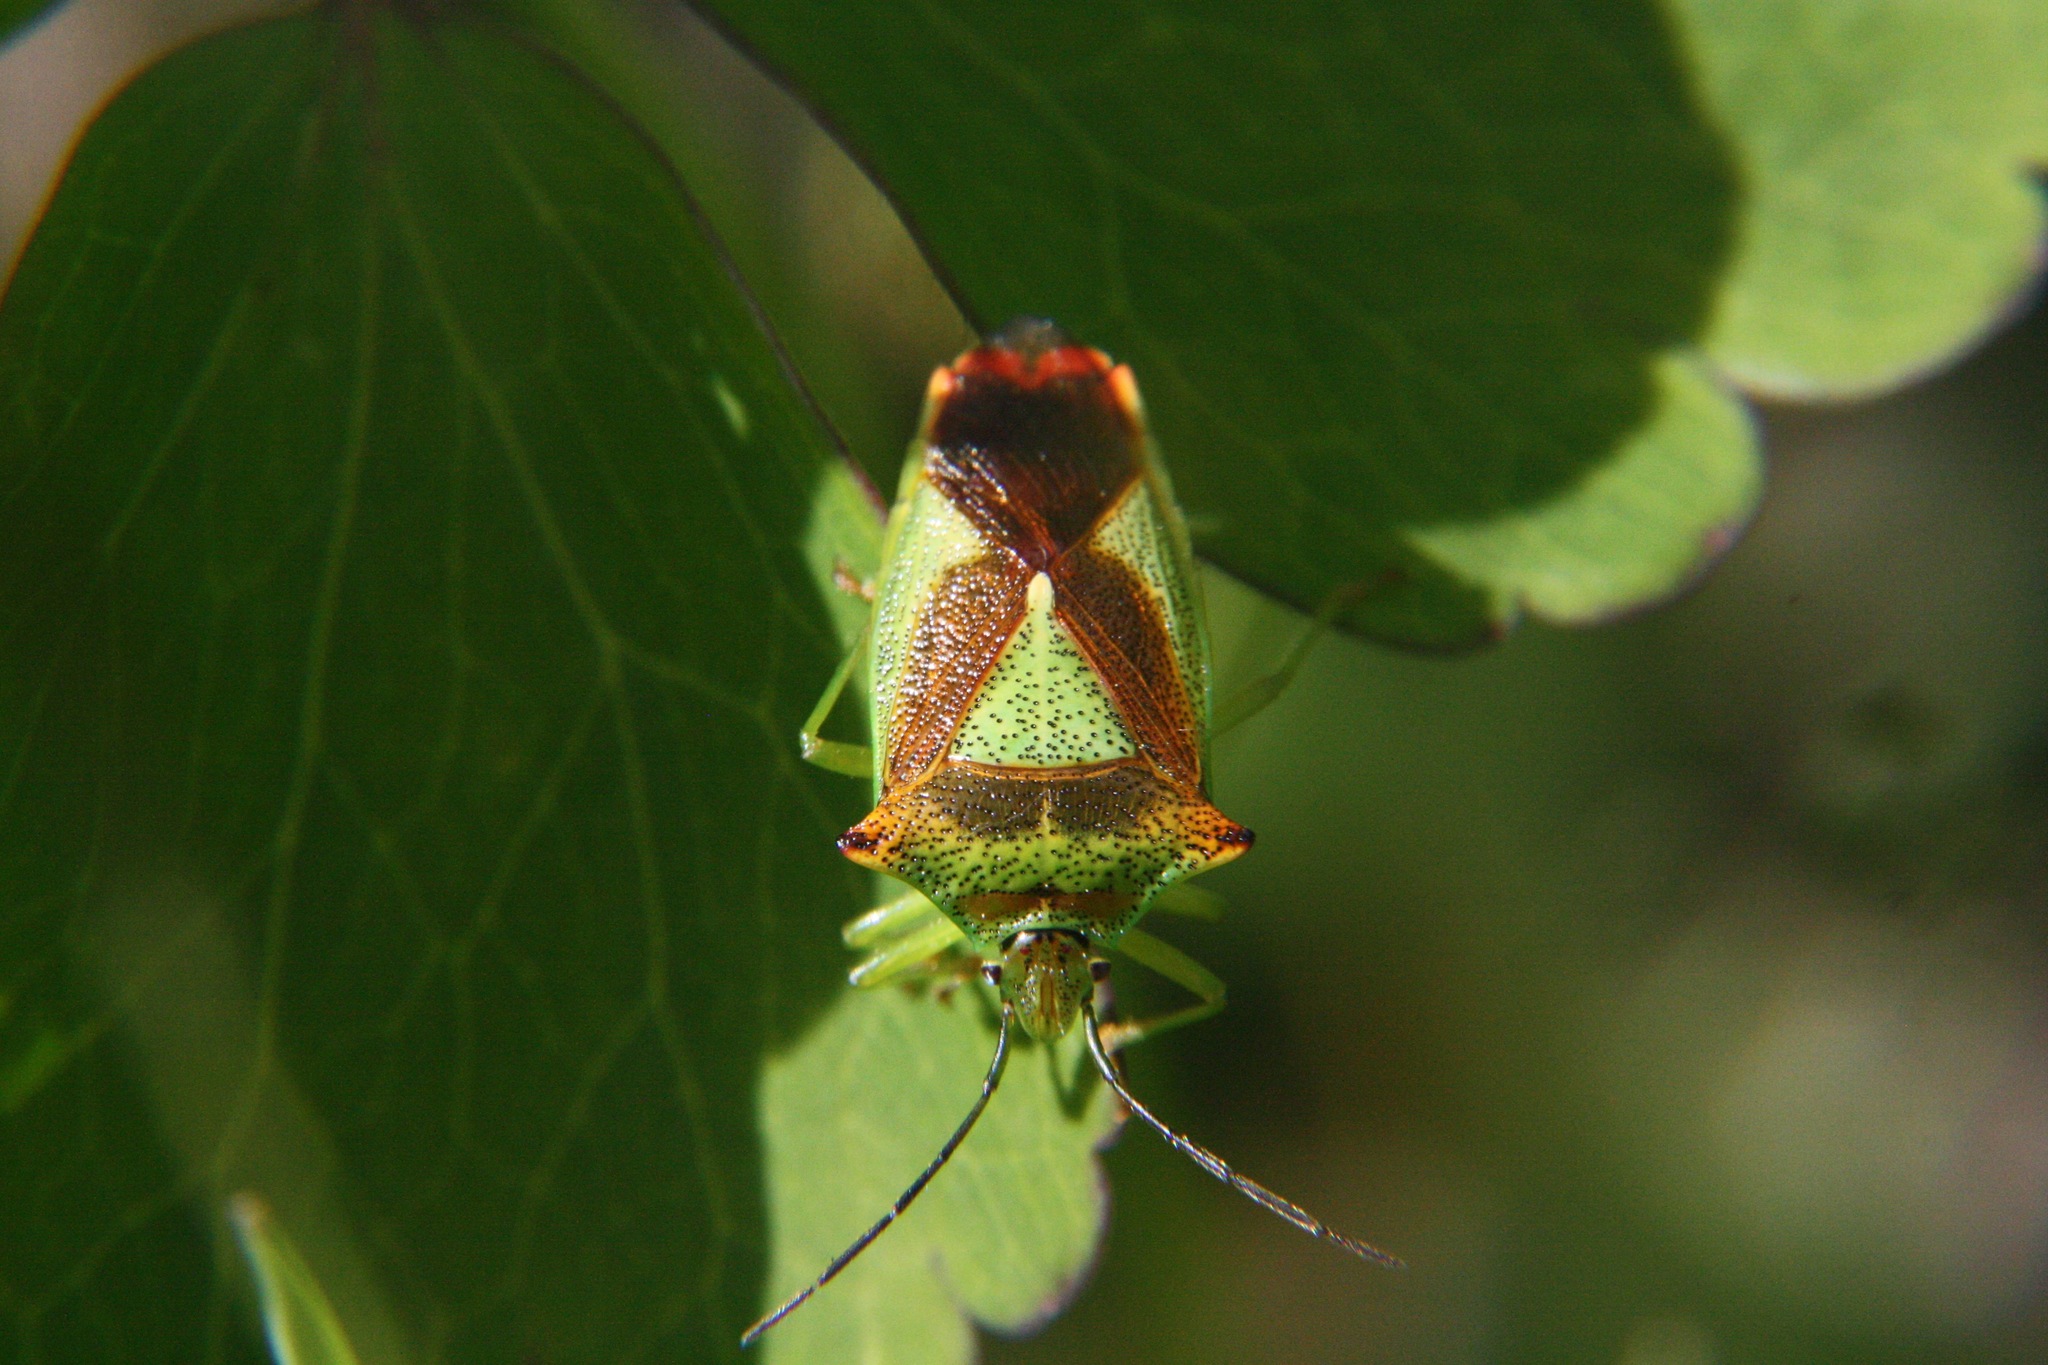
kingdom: Animalia
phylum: Arthropoda
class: Insecta
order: Hemiptera
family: Acanthosomatidae
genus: Acanthosoma
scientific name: Acanthosoma haemorrhoidale
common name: Hawthorn shieldbug
